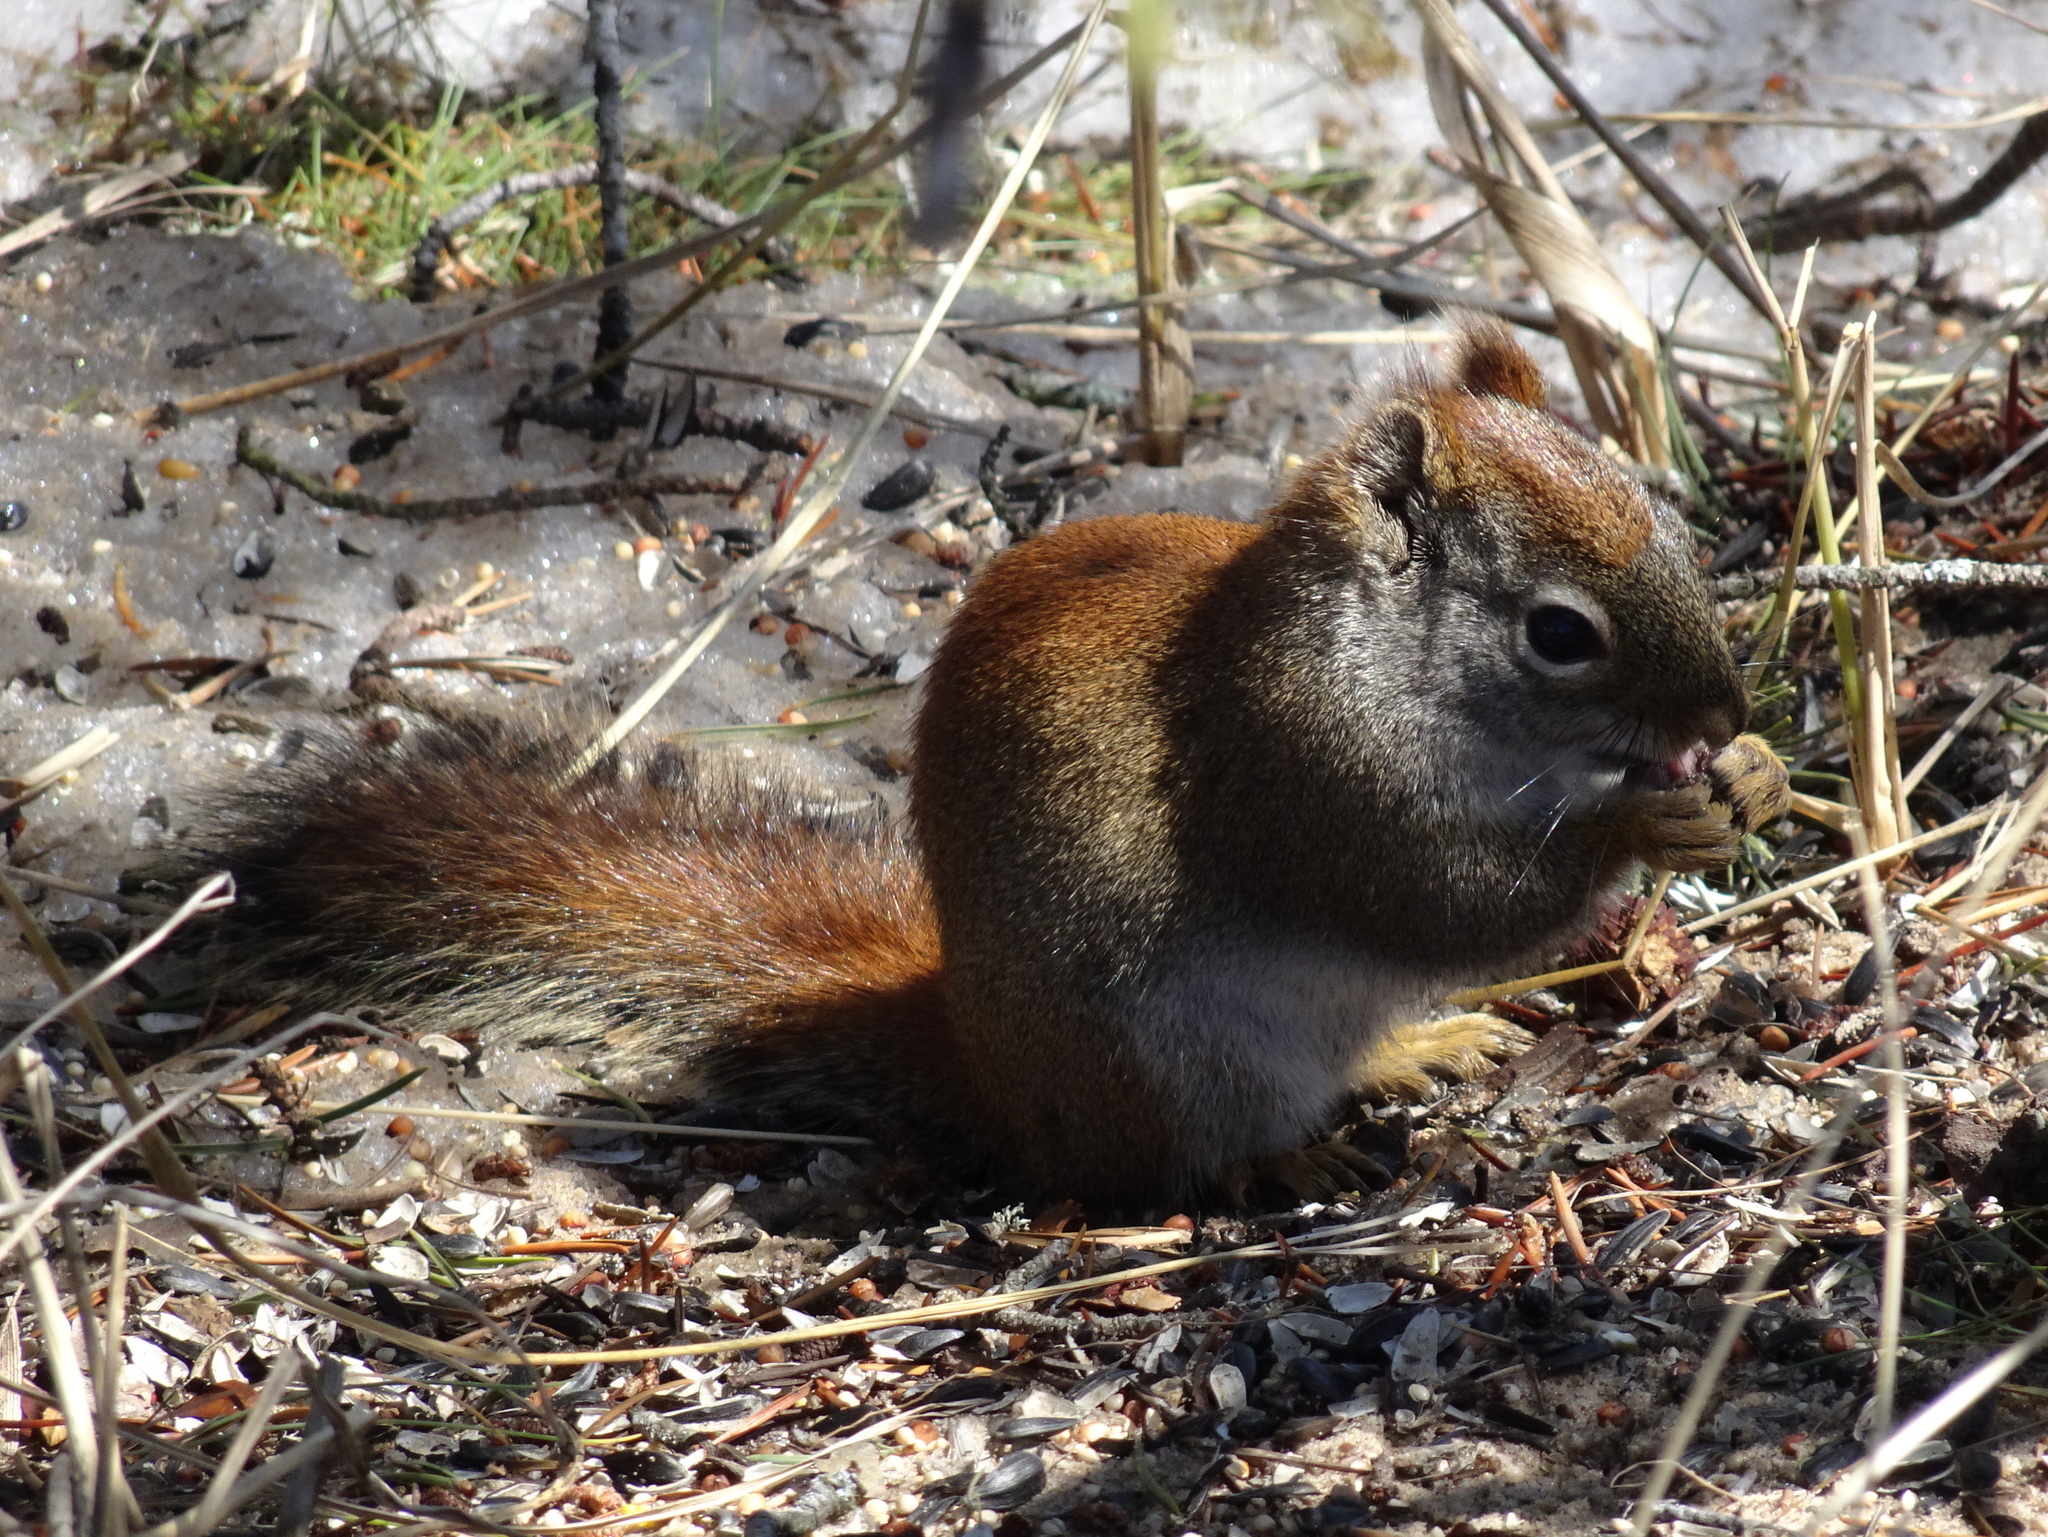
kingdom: Animalia
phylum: Chordata
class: Mammalia
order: Rodentia
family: Sciuridae
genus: Tamiasciurus
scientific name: Tamiasciurus hudsonicus
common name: Red squirrel
